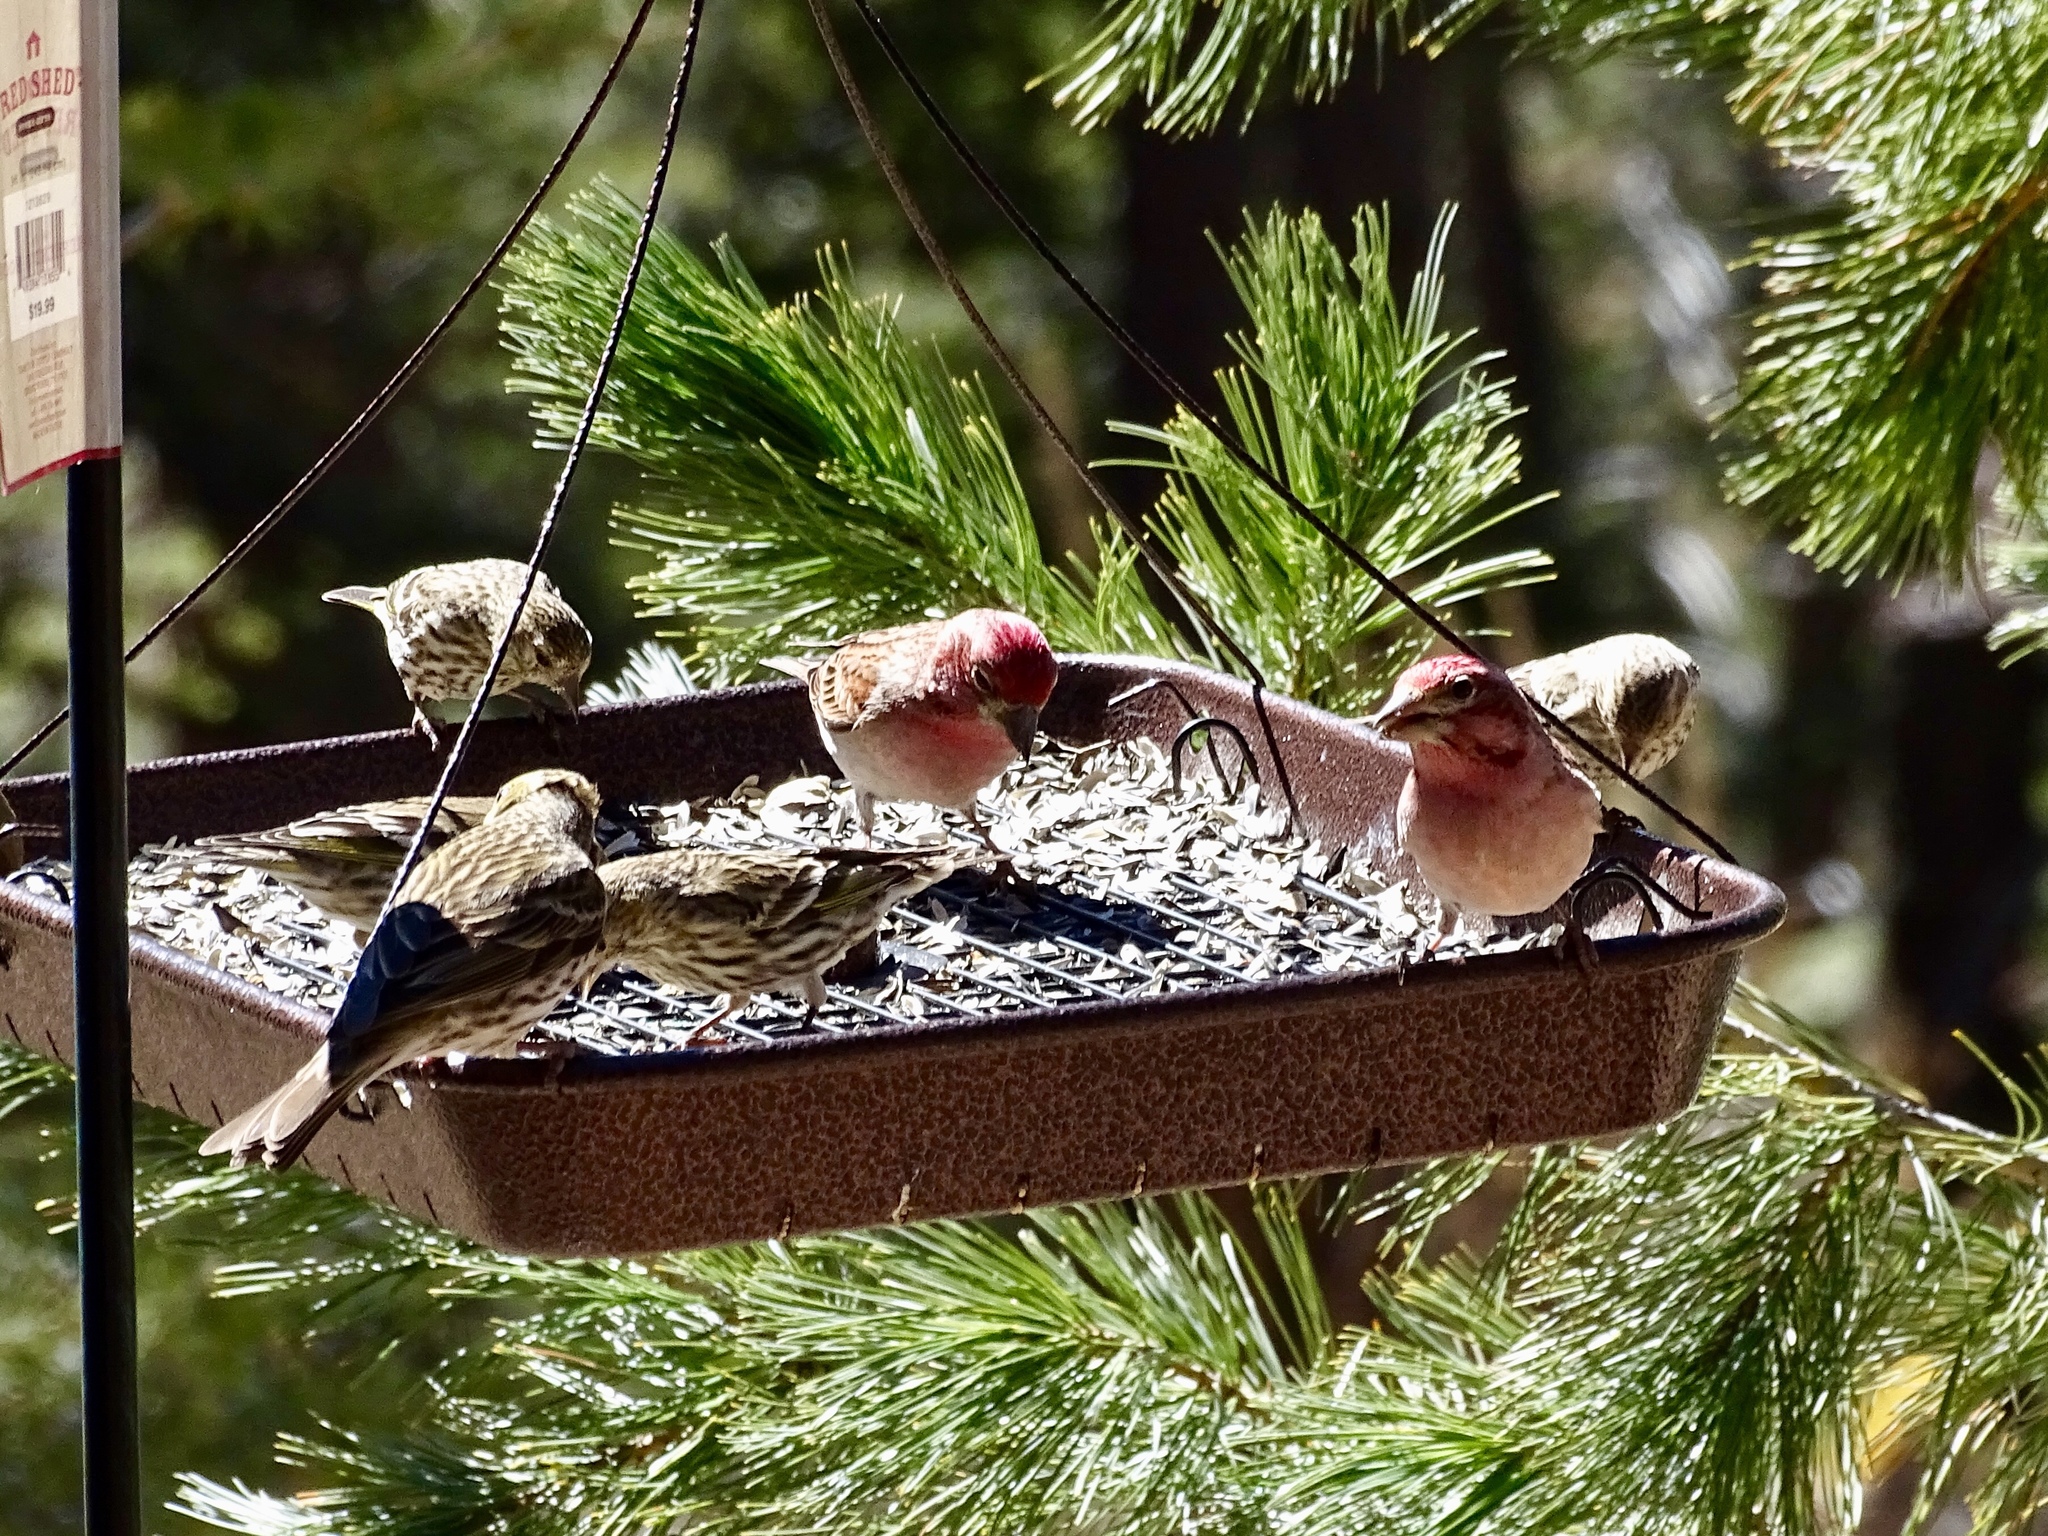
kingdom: Animalia
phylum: Chordata
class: Aves
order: Passeriformes
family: Fringillidae
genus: Haemorhous
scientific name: Haemorhous cassinii
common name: Cassin's finch
